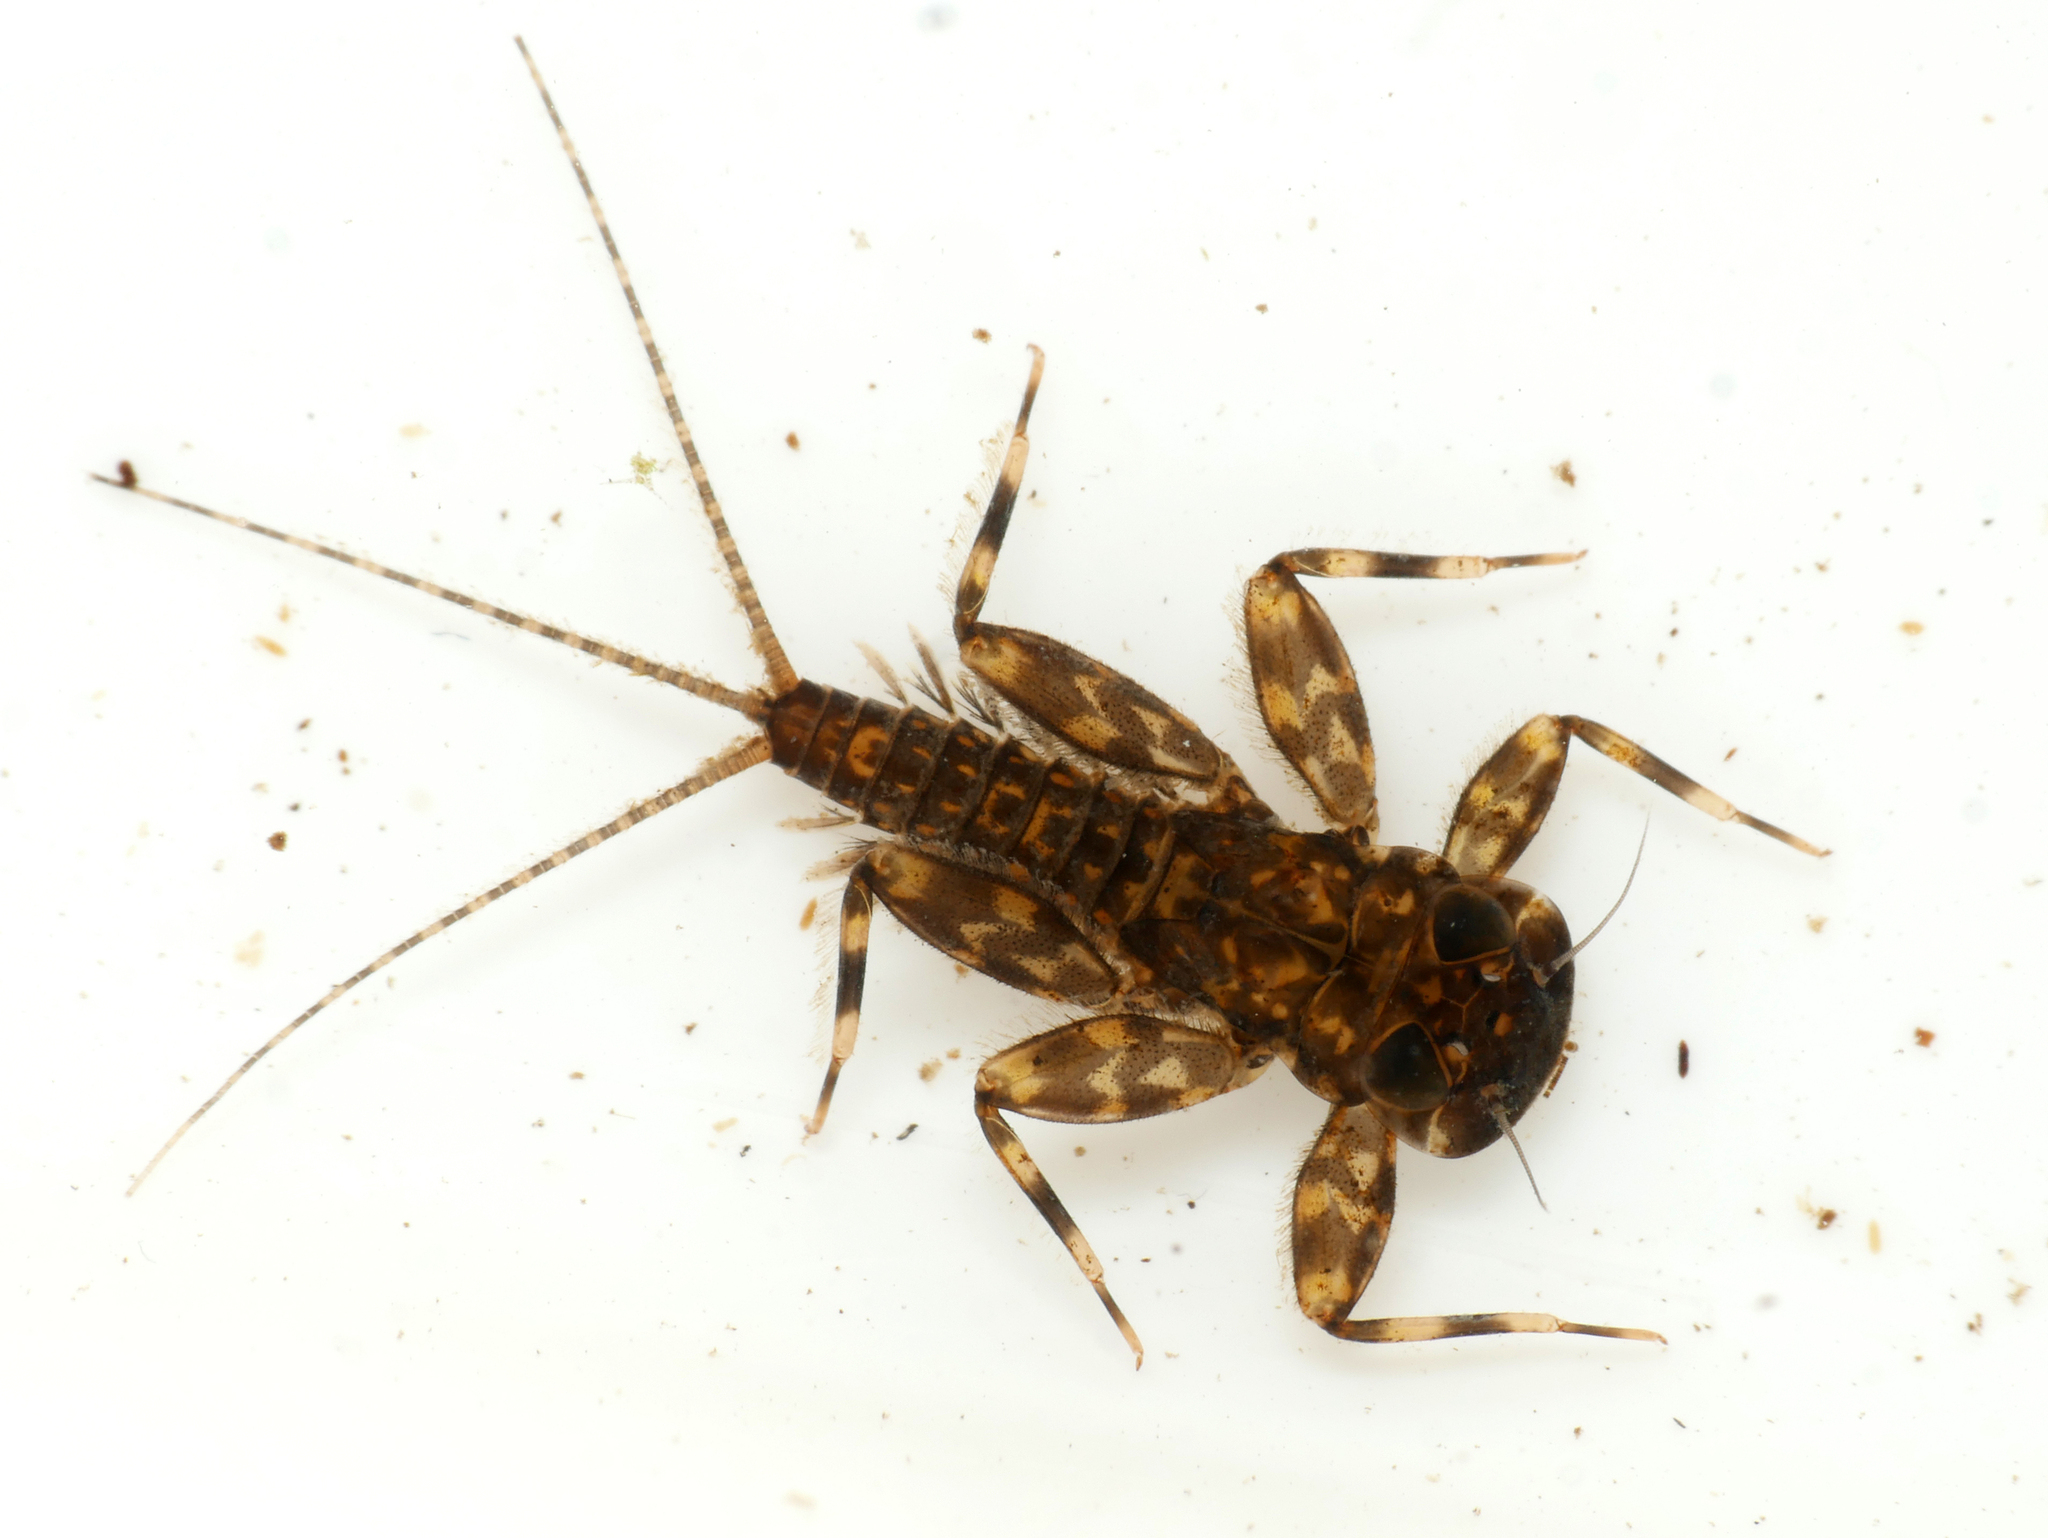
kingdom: Animalia
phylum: Arthropoda
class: Insecta
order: Ephemeroptera
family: Heptageniidae
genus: Heptagenia
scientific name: Heptagenia sulphurea
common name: Yellow may dun
